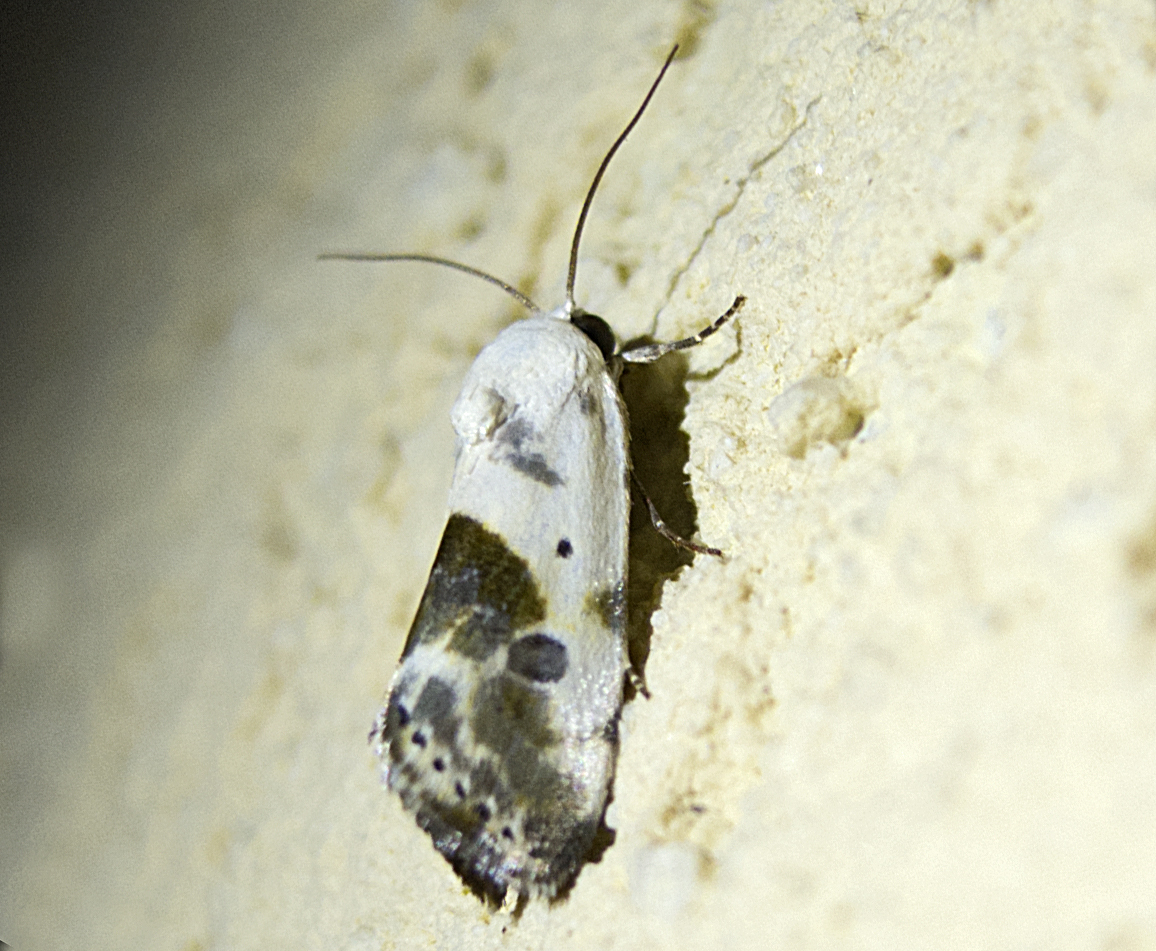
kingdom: Animalia
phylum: Arthropoda
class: Insecta
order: Lepidoptera
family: Noctuidae
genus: Acontia
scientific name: Acontia candefacta
